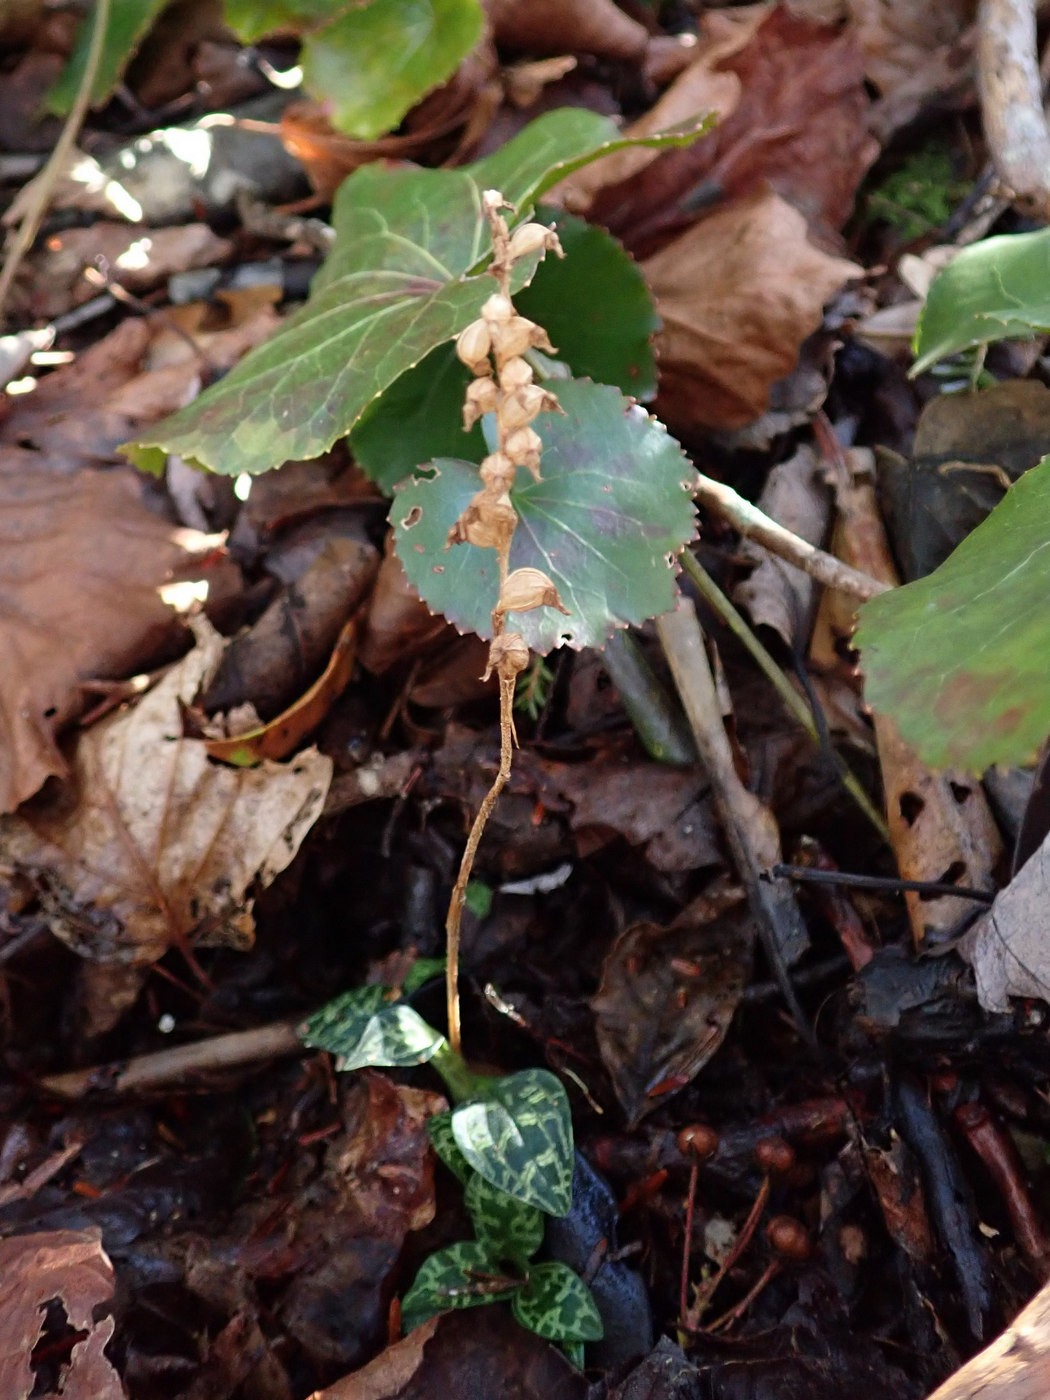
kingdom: Plantae
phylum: Tracheophyta
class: Liliopsida
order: Asparagales
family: Orchidaceae
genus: Goodyera
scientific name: Goodyera repens
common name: Creeping lady's-tresses
